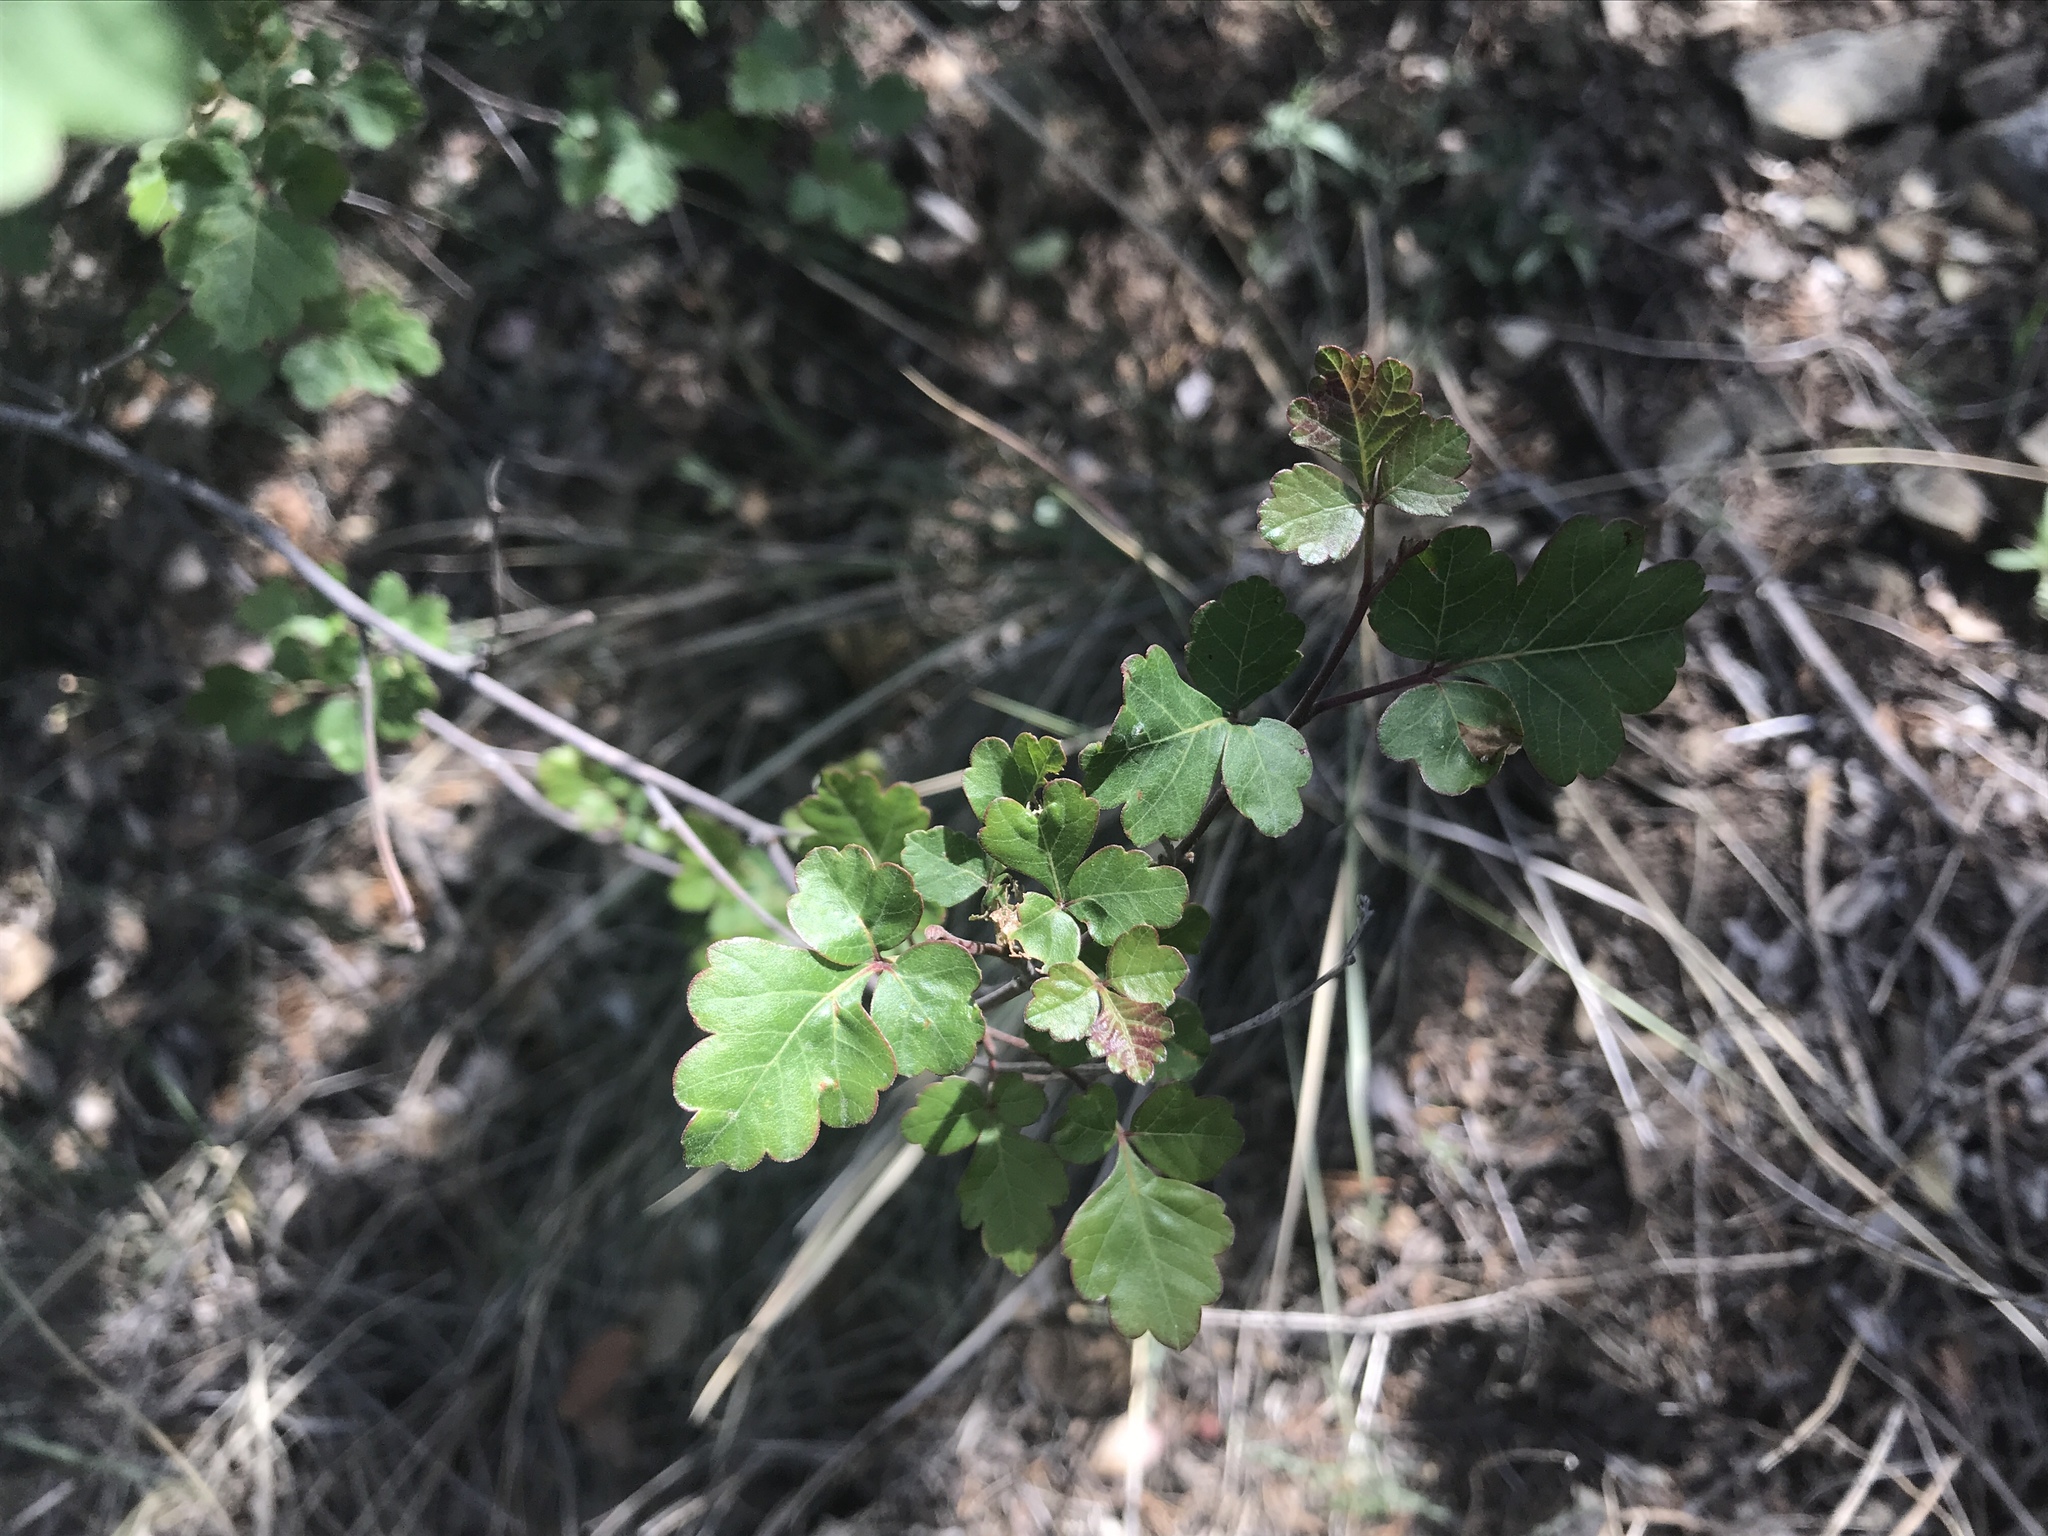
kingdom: Plantae
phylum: Tracheophyta
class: Magnoliopsida
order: Sapindales
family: Anacardiaceae
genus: Rhus
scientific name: Rhus aromatica
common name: Aromatic sumac
